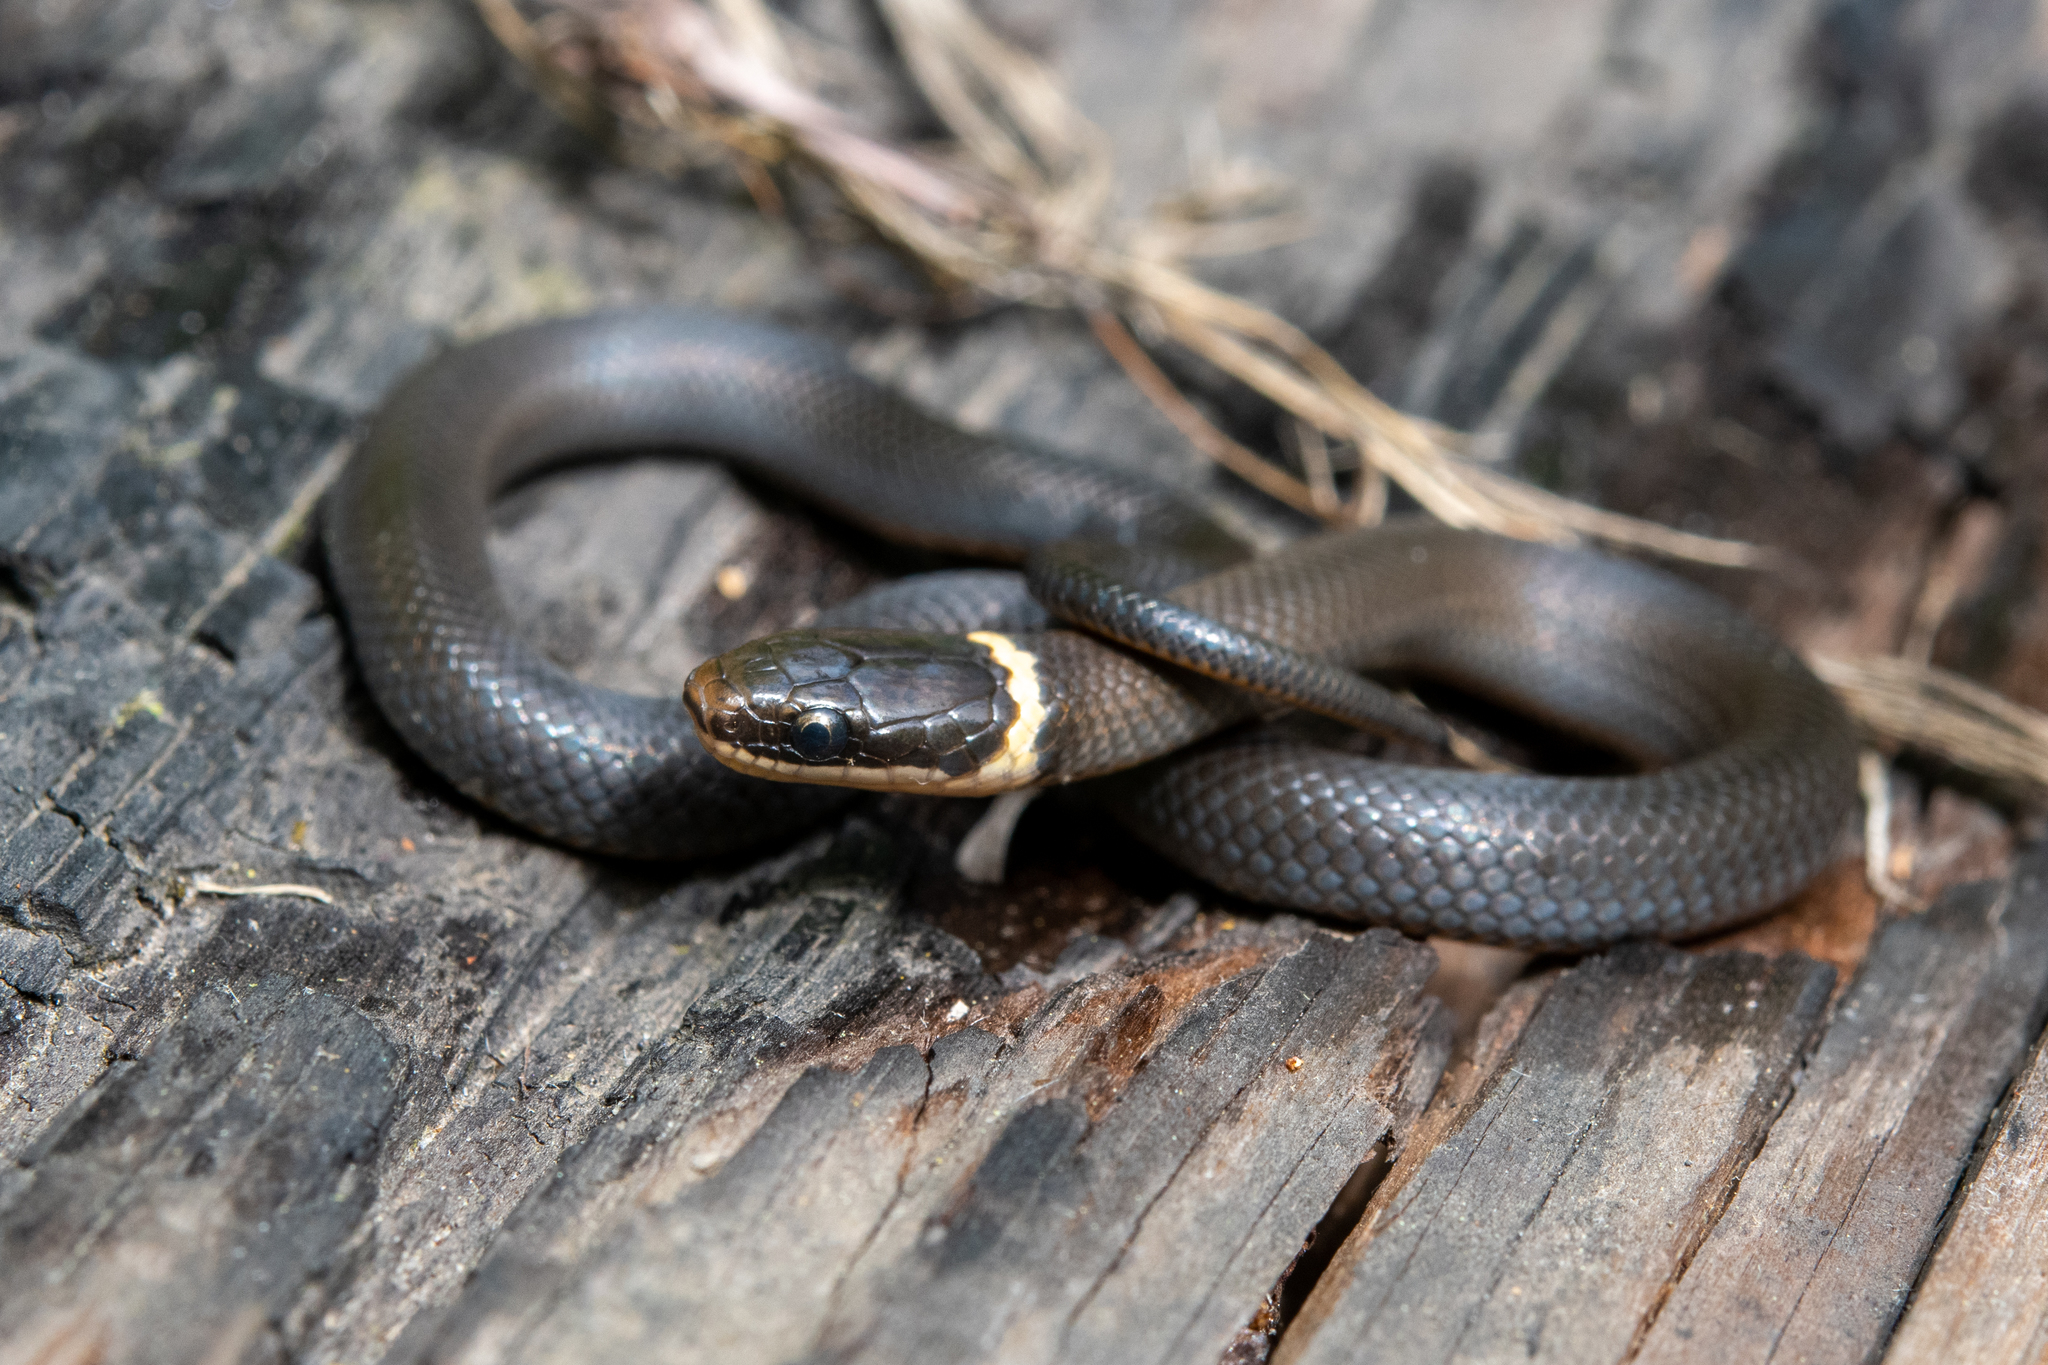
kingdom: Animalia
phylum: Chordata
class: Squamata
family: Colubridae
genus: Diadophis
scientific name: Diadophis punctatus
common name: Ringneck snake
